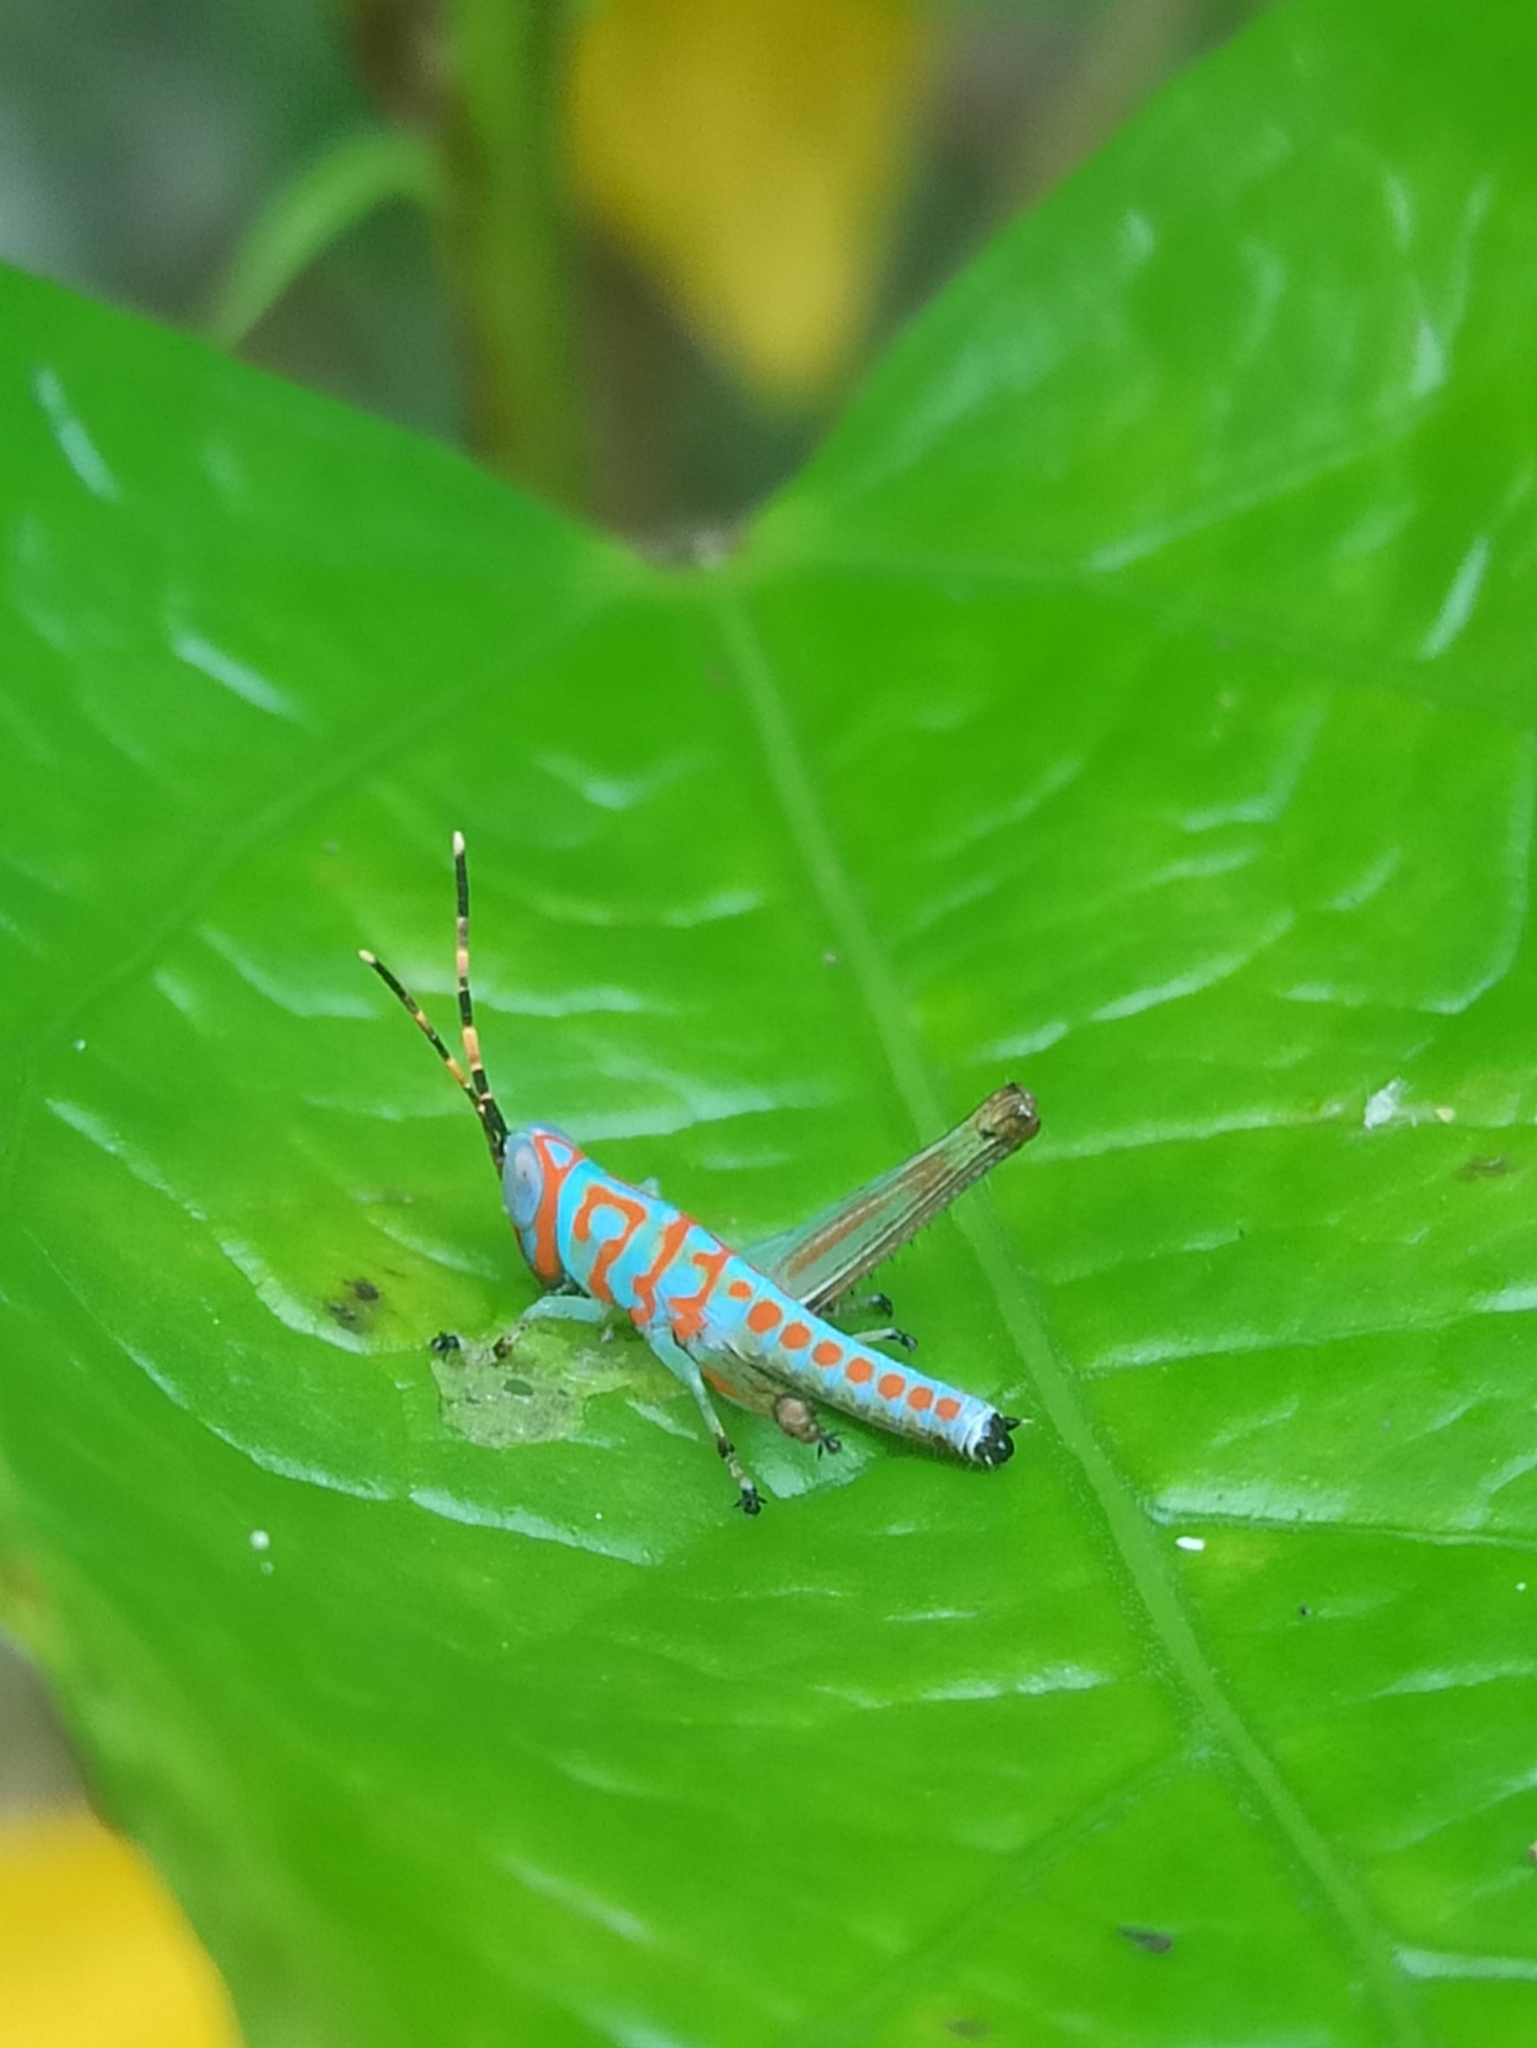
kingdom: Animalia
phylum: Arthropoda
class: Insecta
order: Orthoptera
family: Acrididae
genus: Pirithoicus
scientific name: Pirithoicus ophthalmicus
